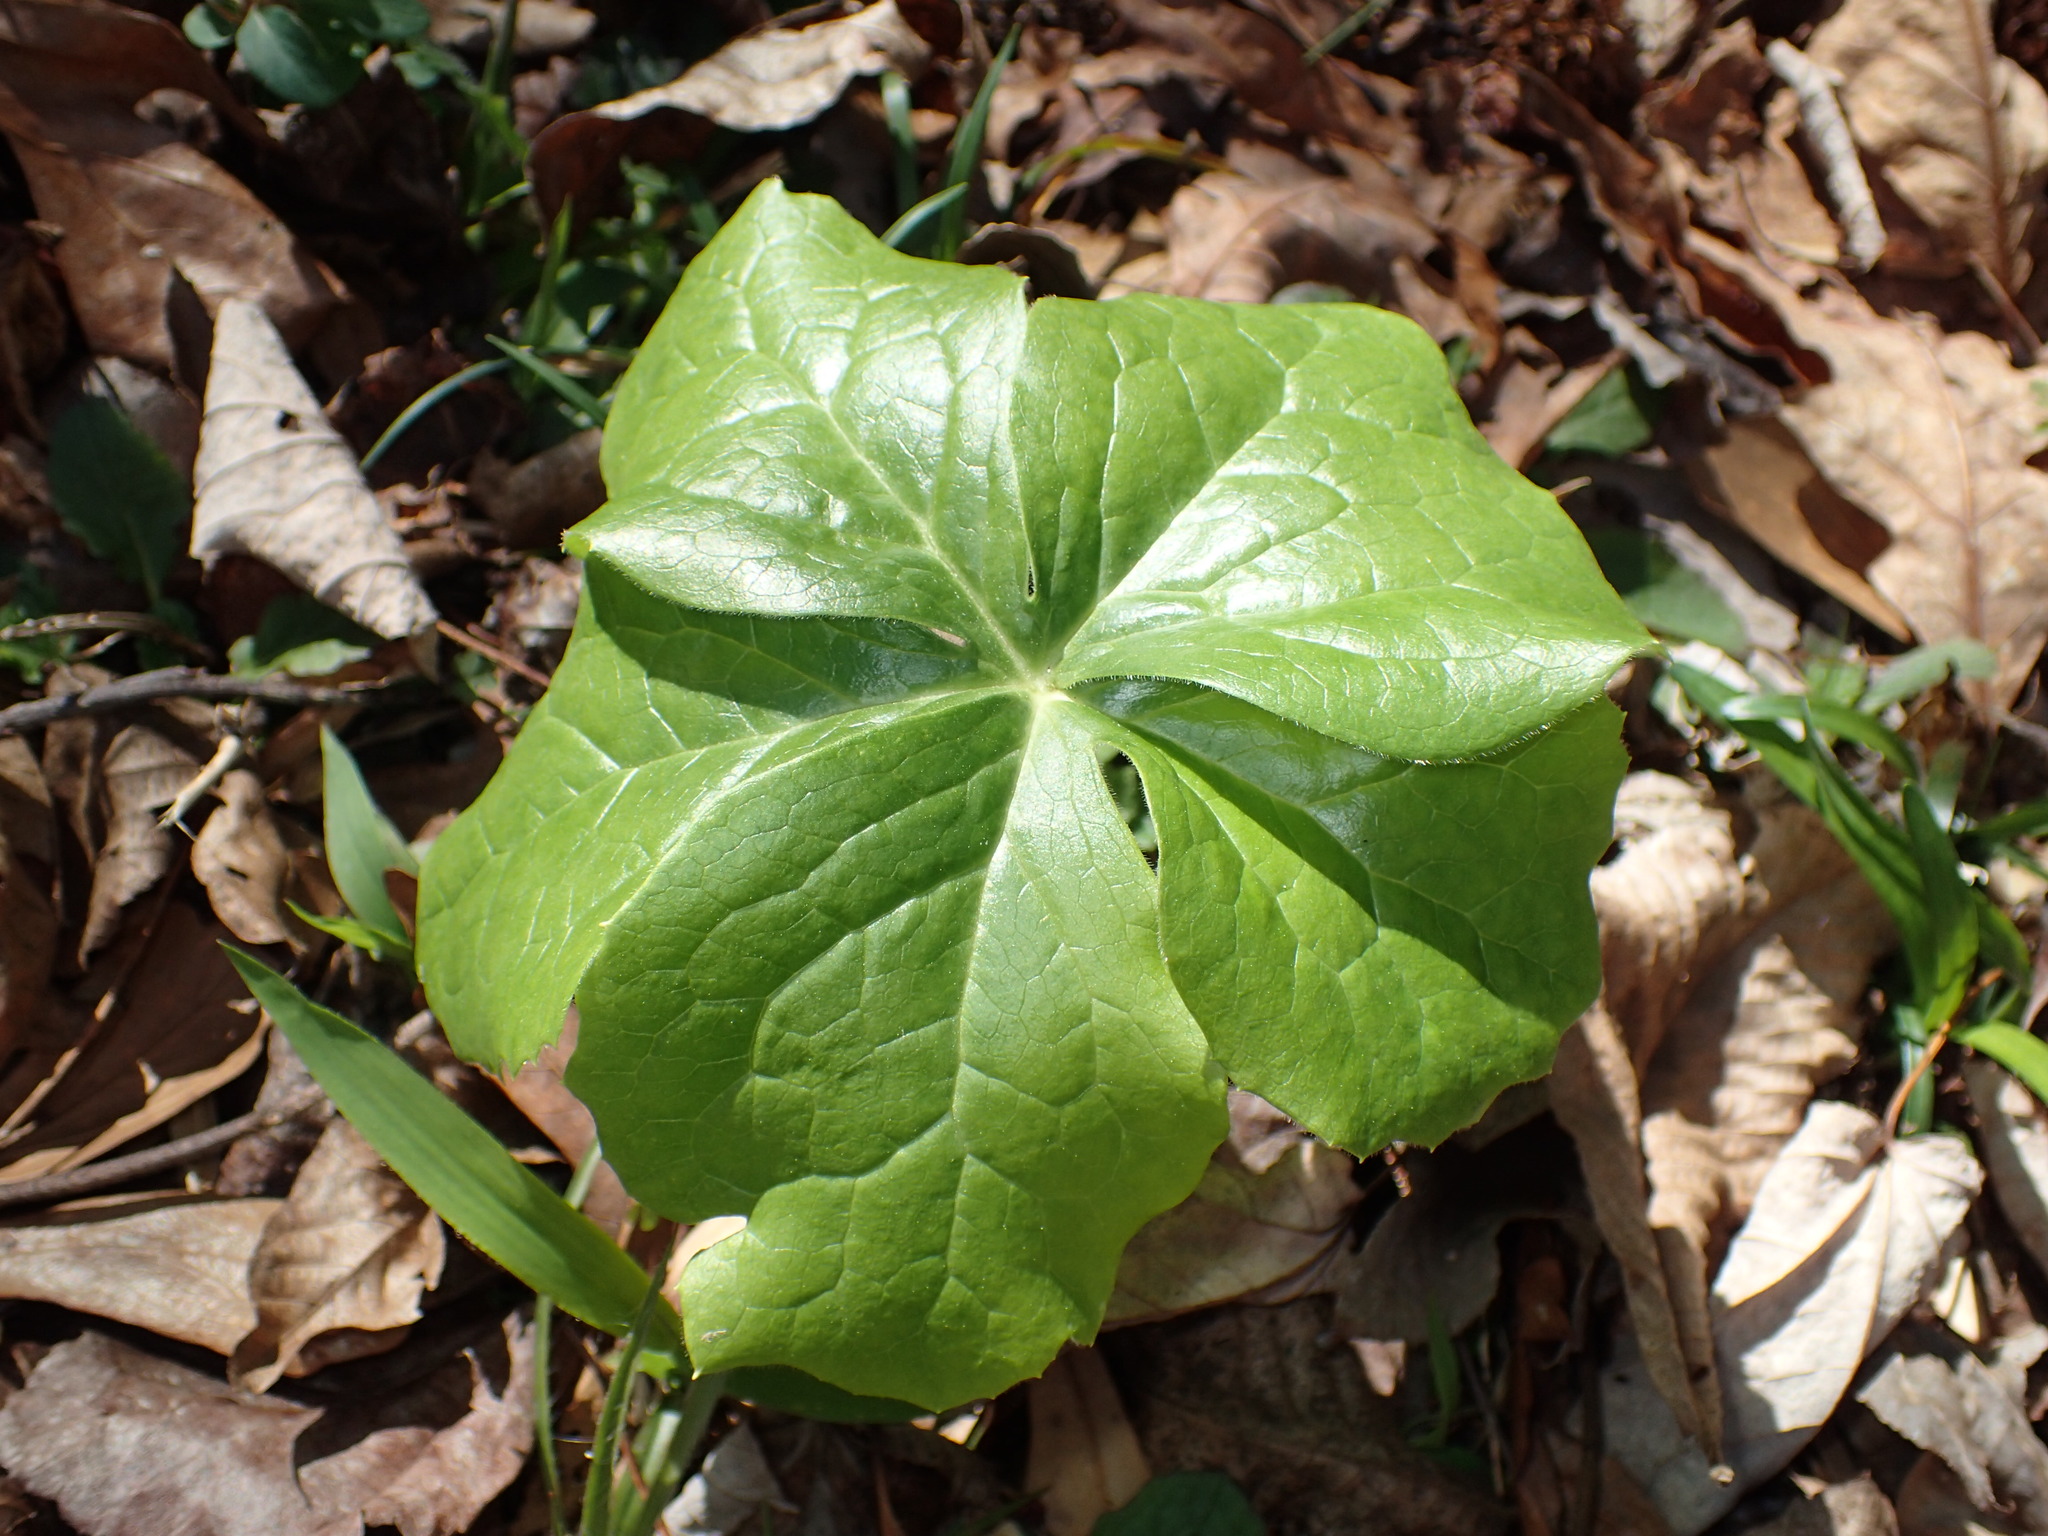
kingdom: Plantae
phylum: Tracheophyta
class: Magnoliopsida
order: Ranunculales
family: Berberidaceae
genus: Podophyllum
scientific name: Podophyllum peltatum
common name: Wild mandrake
